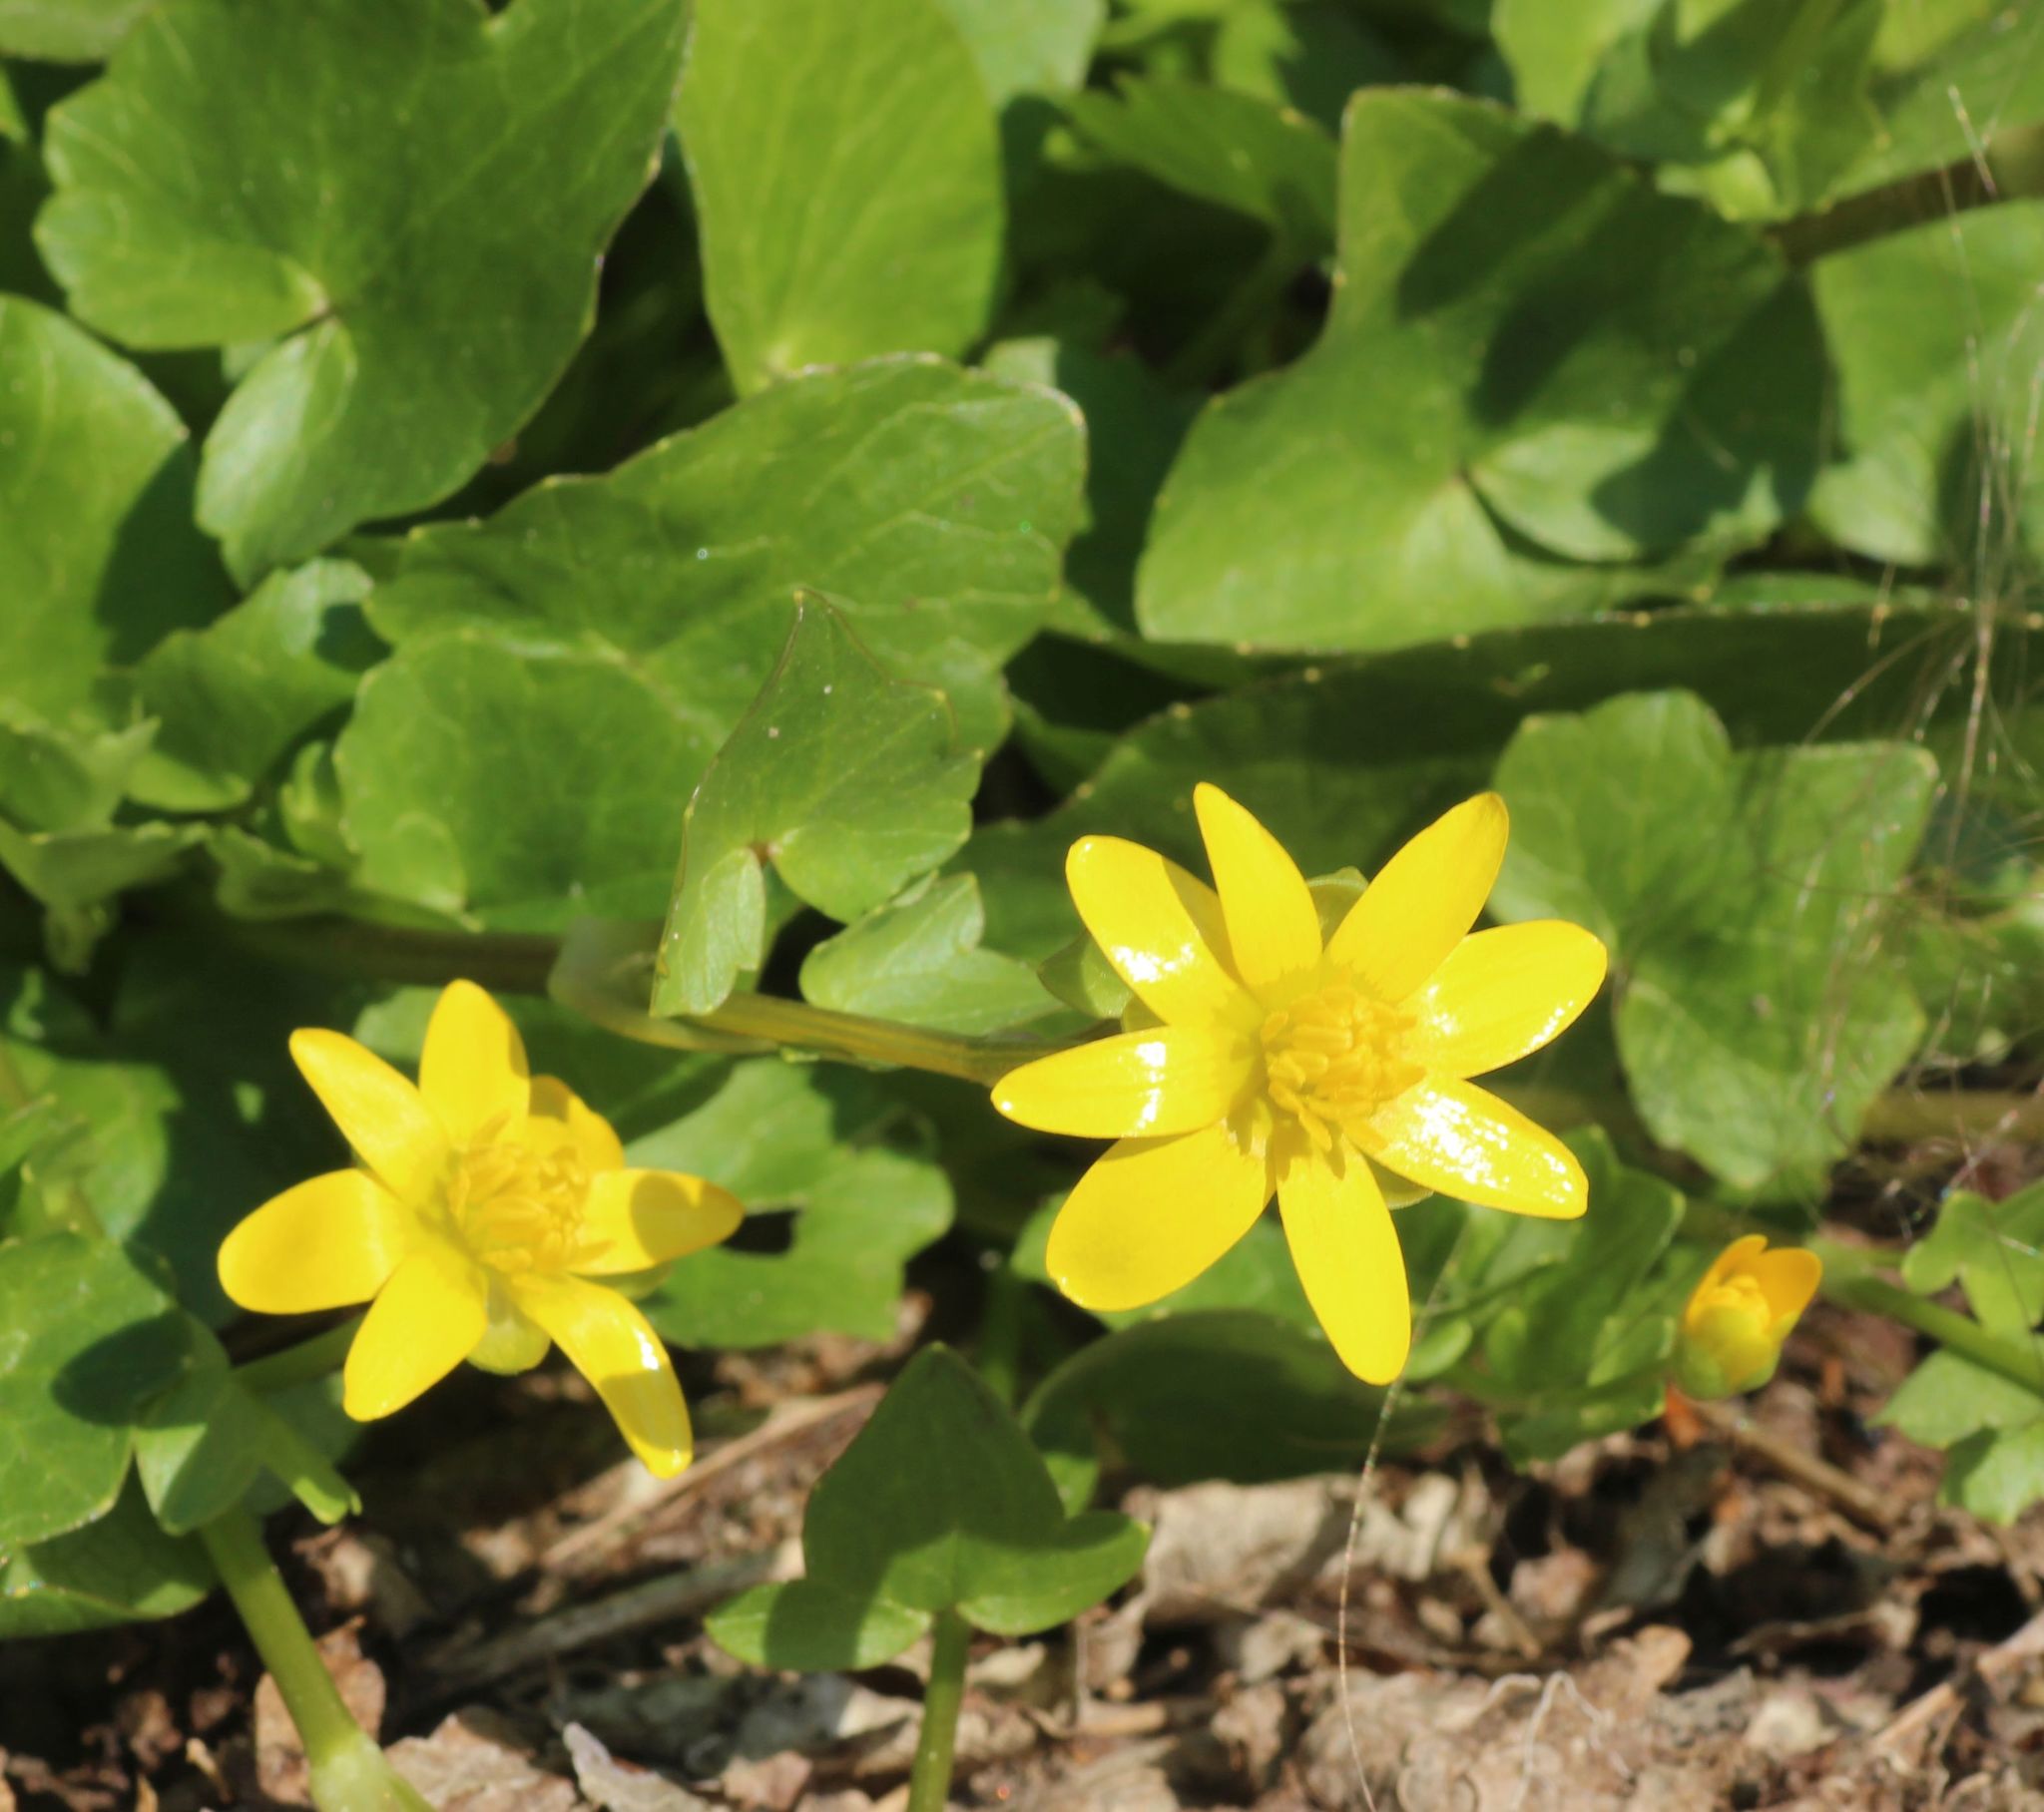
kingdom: Plantae
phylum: Tracheophyta
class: Magnoliopsida
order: Ranunculales
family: Ranunculaceae
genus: Ficaria
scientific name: Ficaria verna
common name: Lesser celandine
